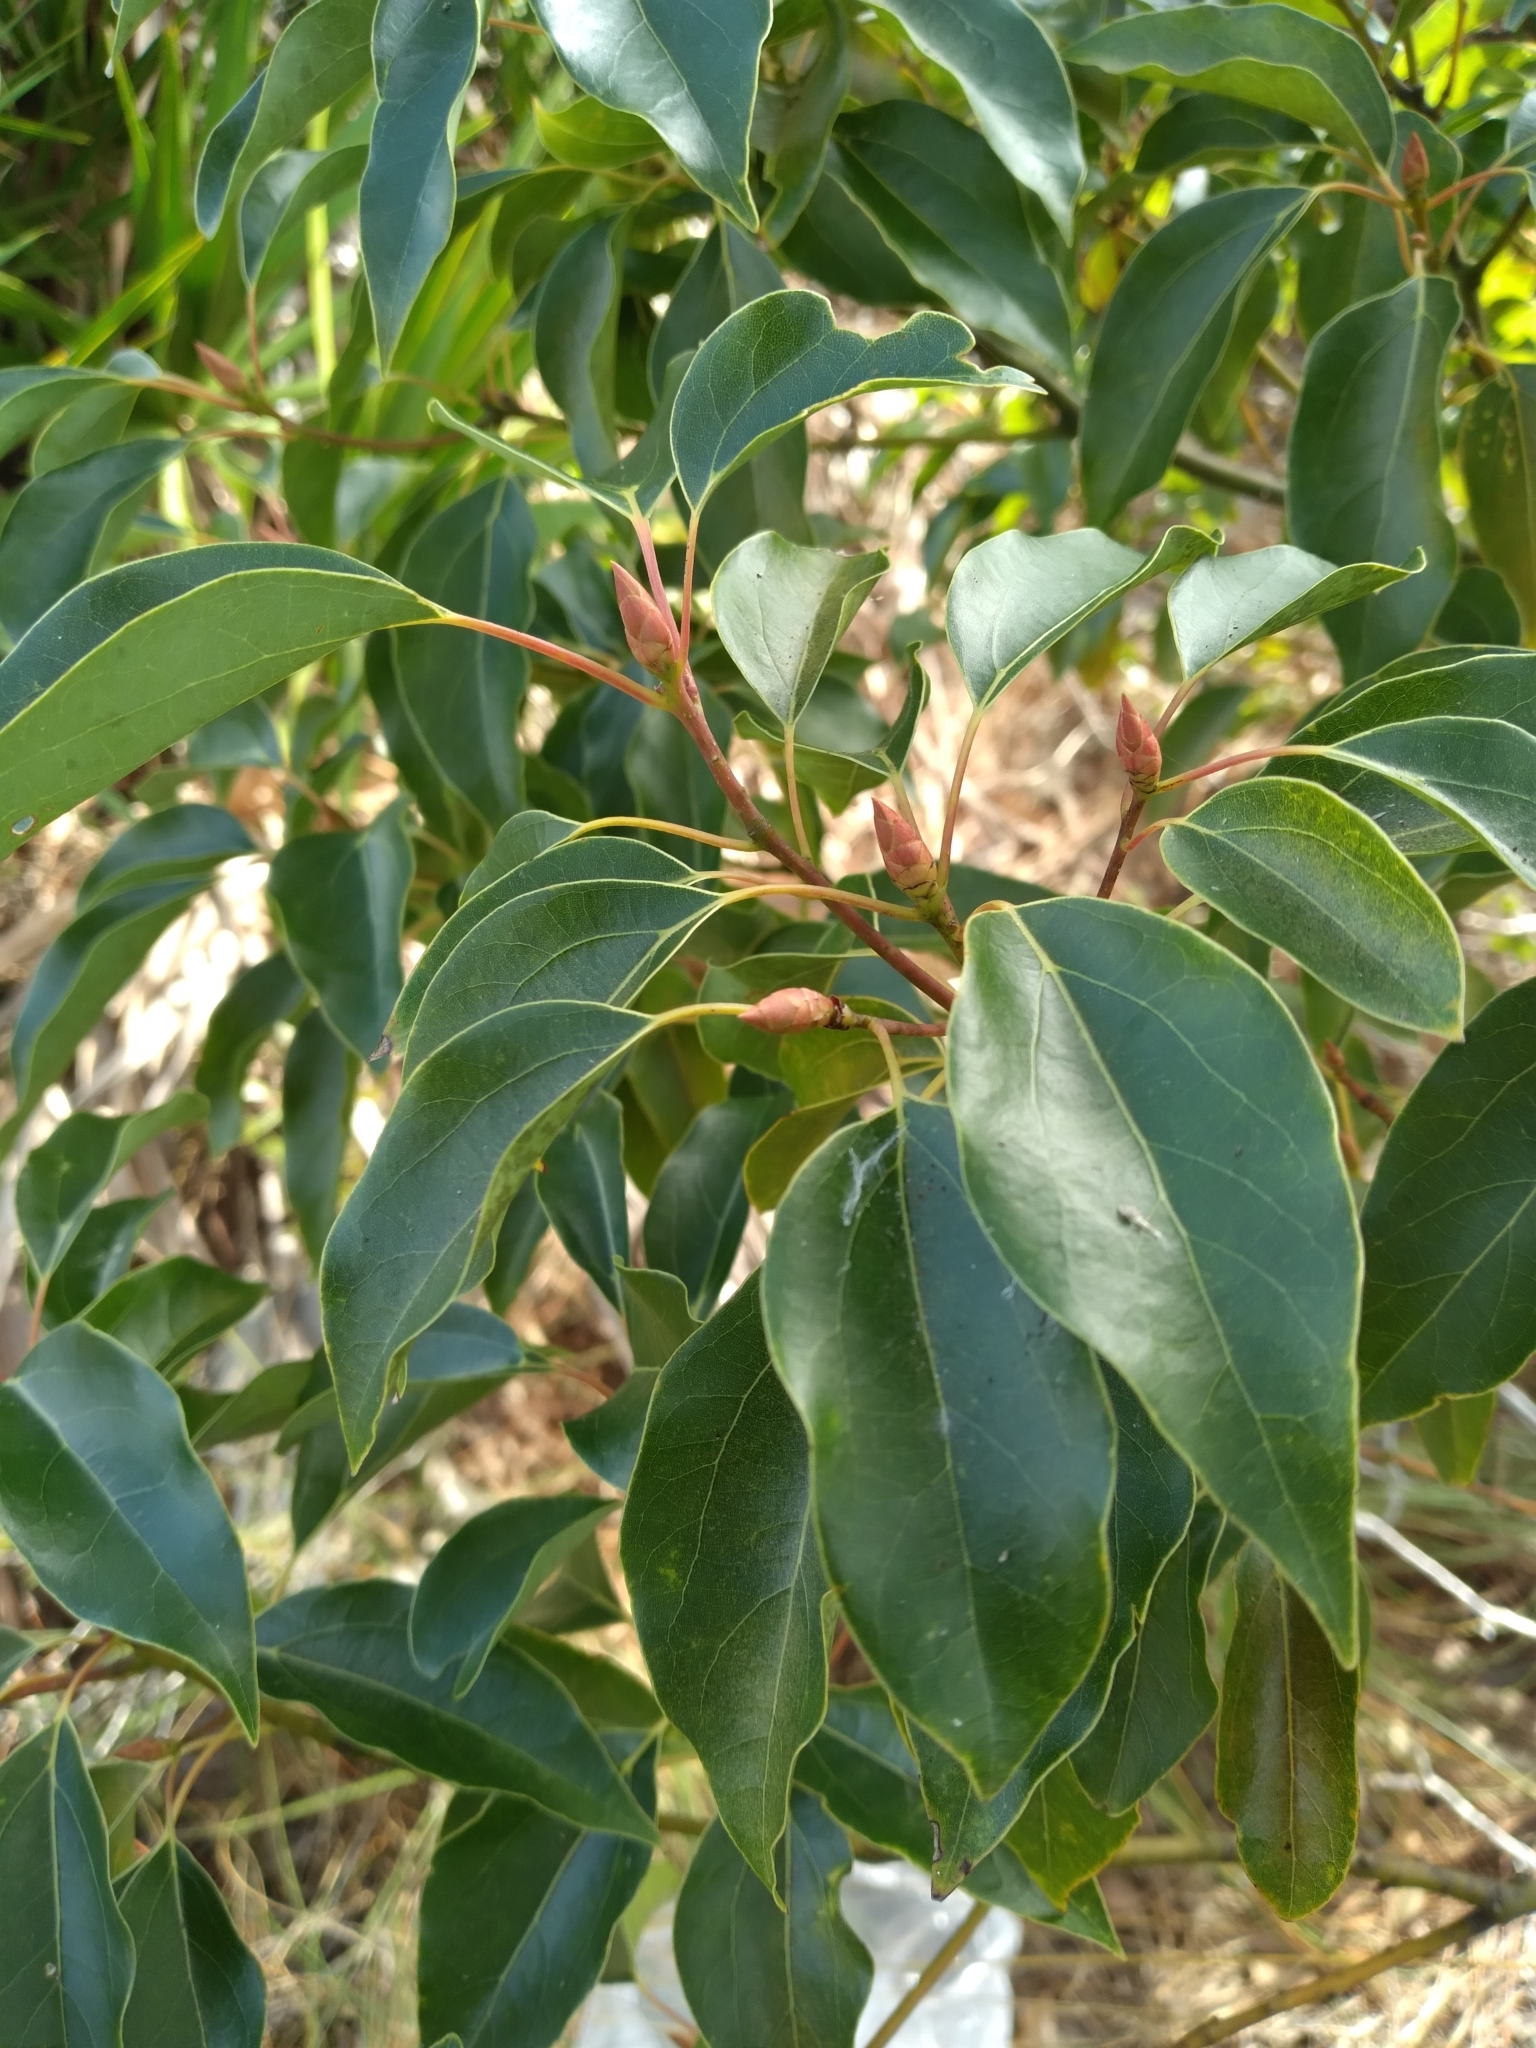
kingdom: Plantae
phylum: Tracheophyta
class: Magnoliopsida
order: Laurales
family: Lauraceae
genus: Cinnamomum
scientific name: Cinnamomum camphora
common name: Camphortree
